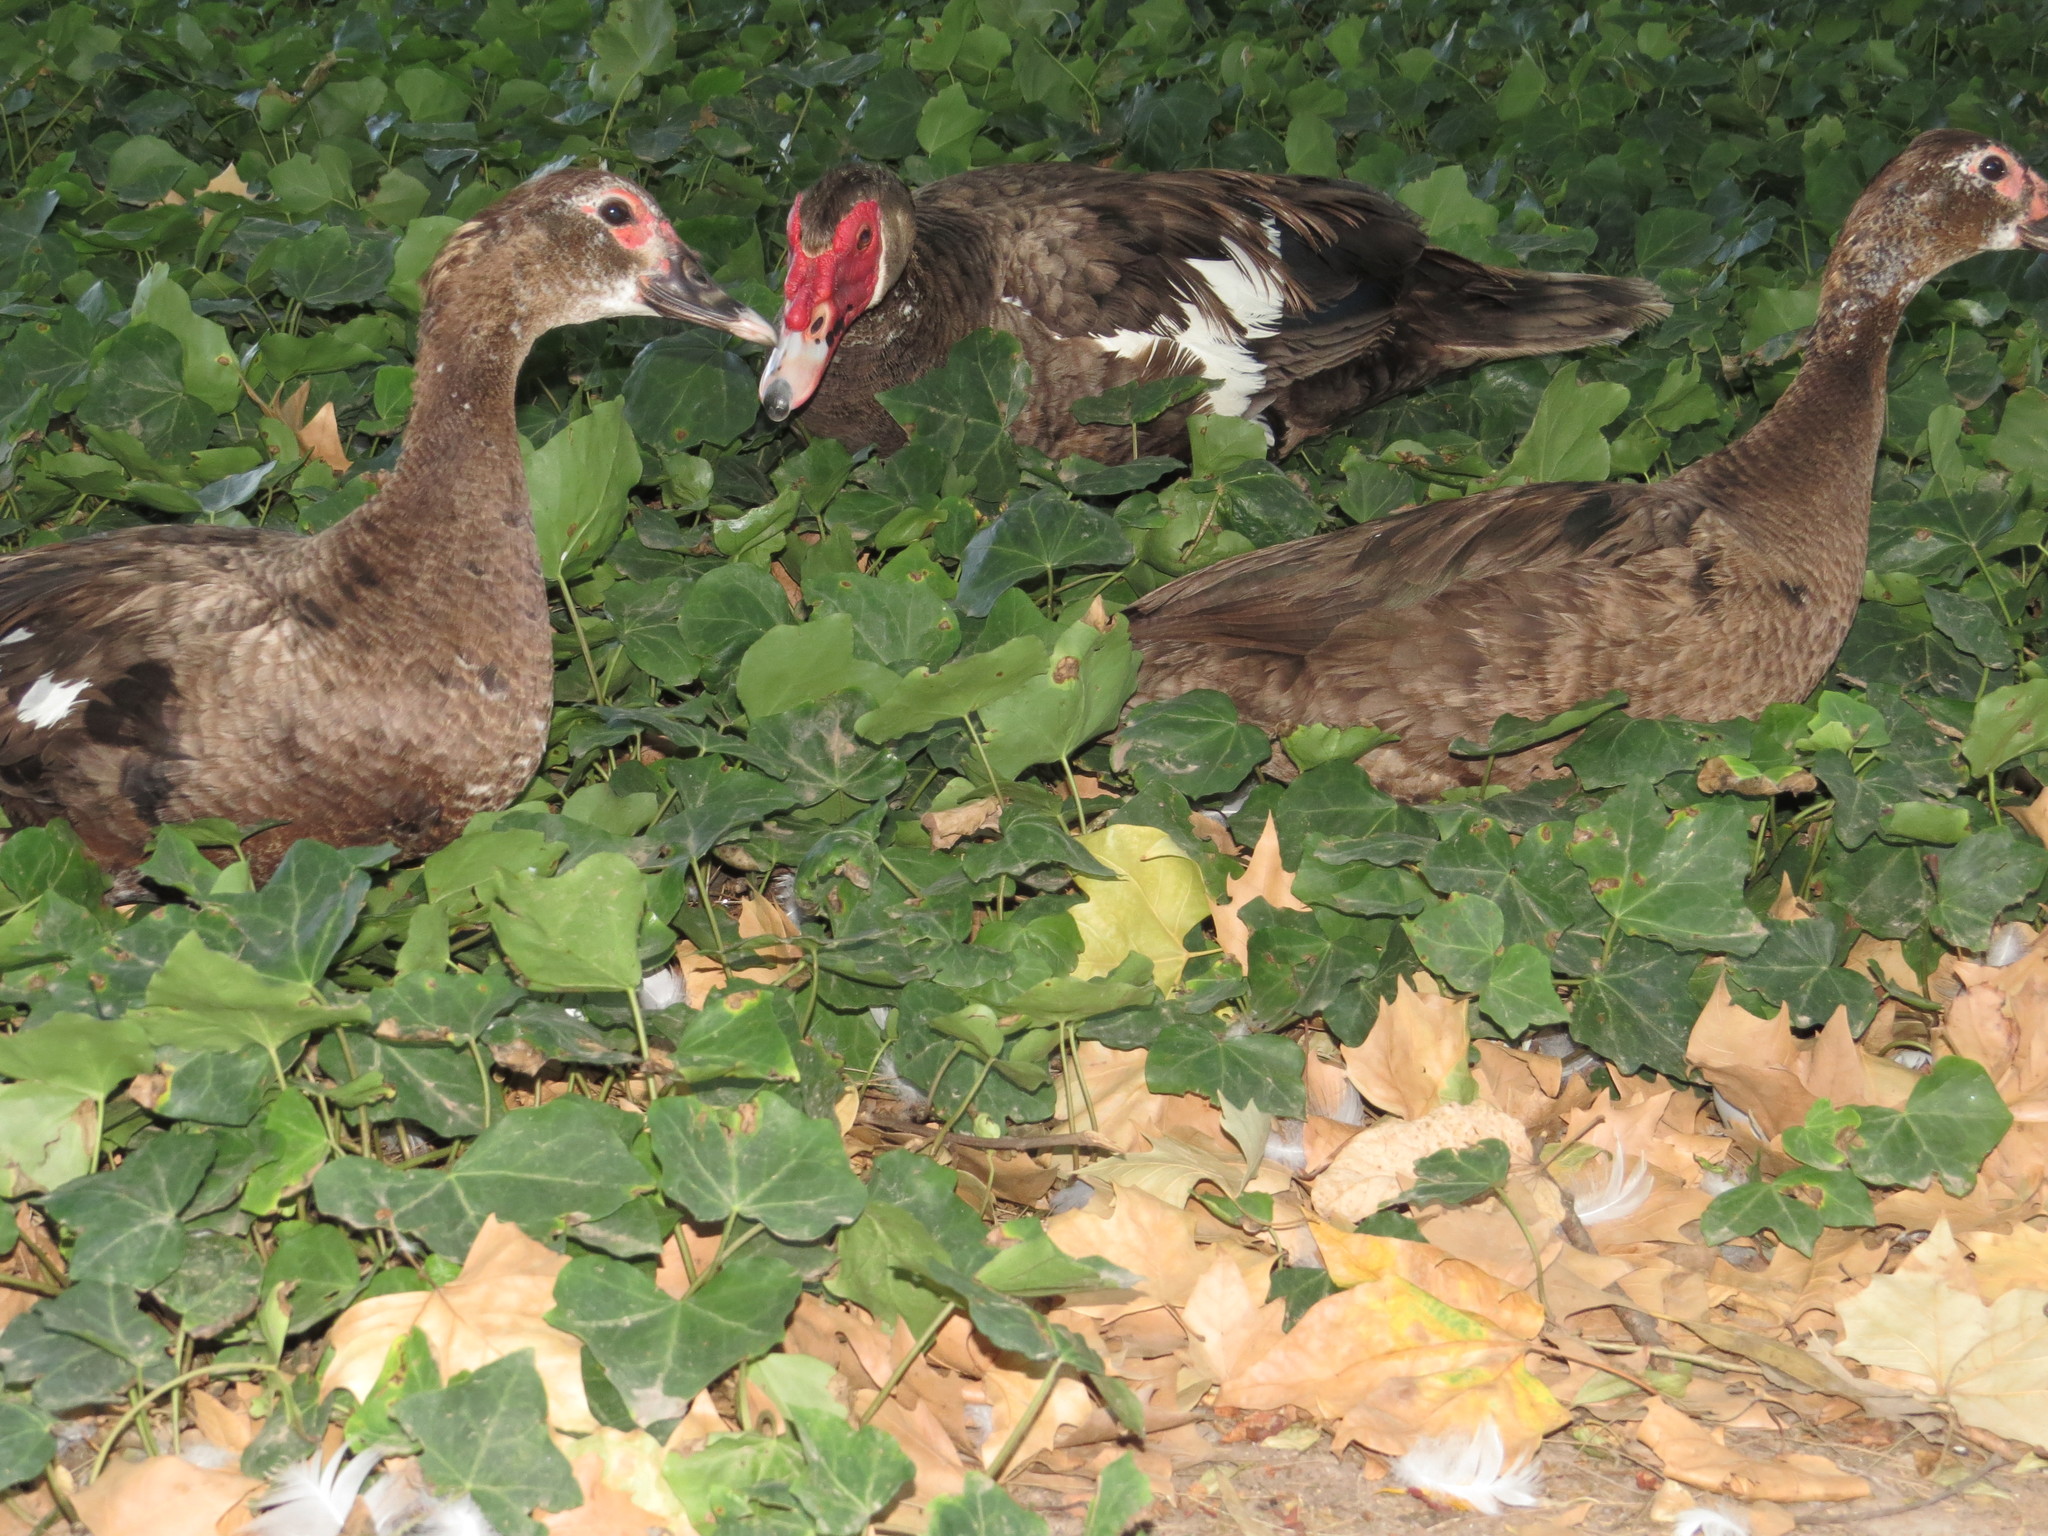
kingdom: Animalia
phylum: Chordata
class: Aves
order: Anseriformes
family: Anatidae
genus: Cairina
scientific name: Cairina moschata
